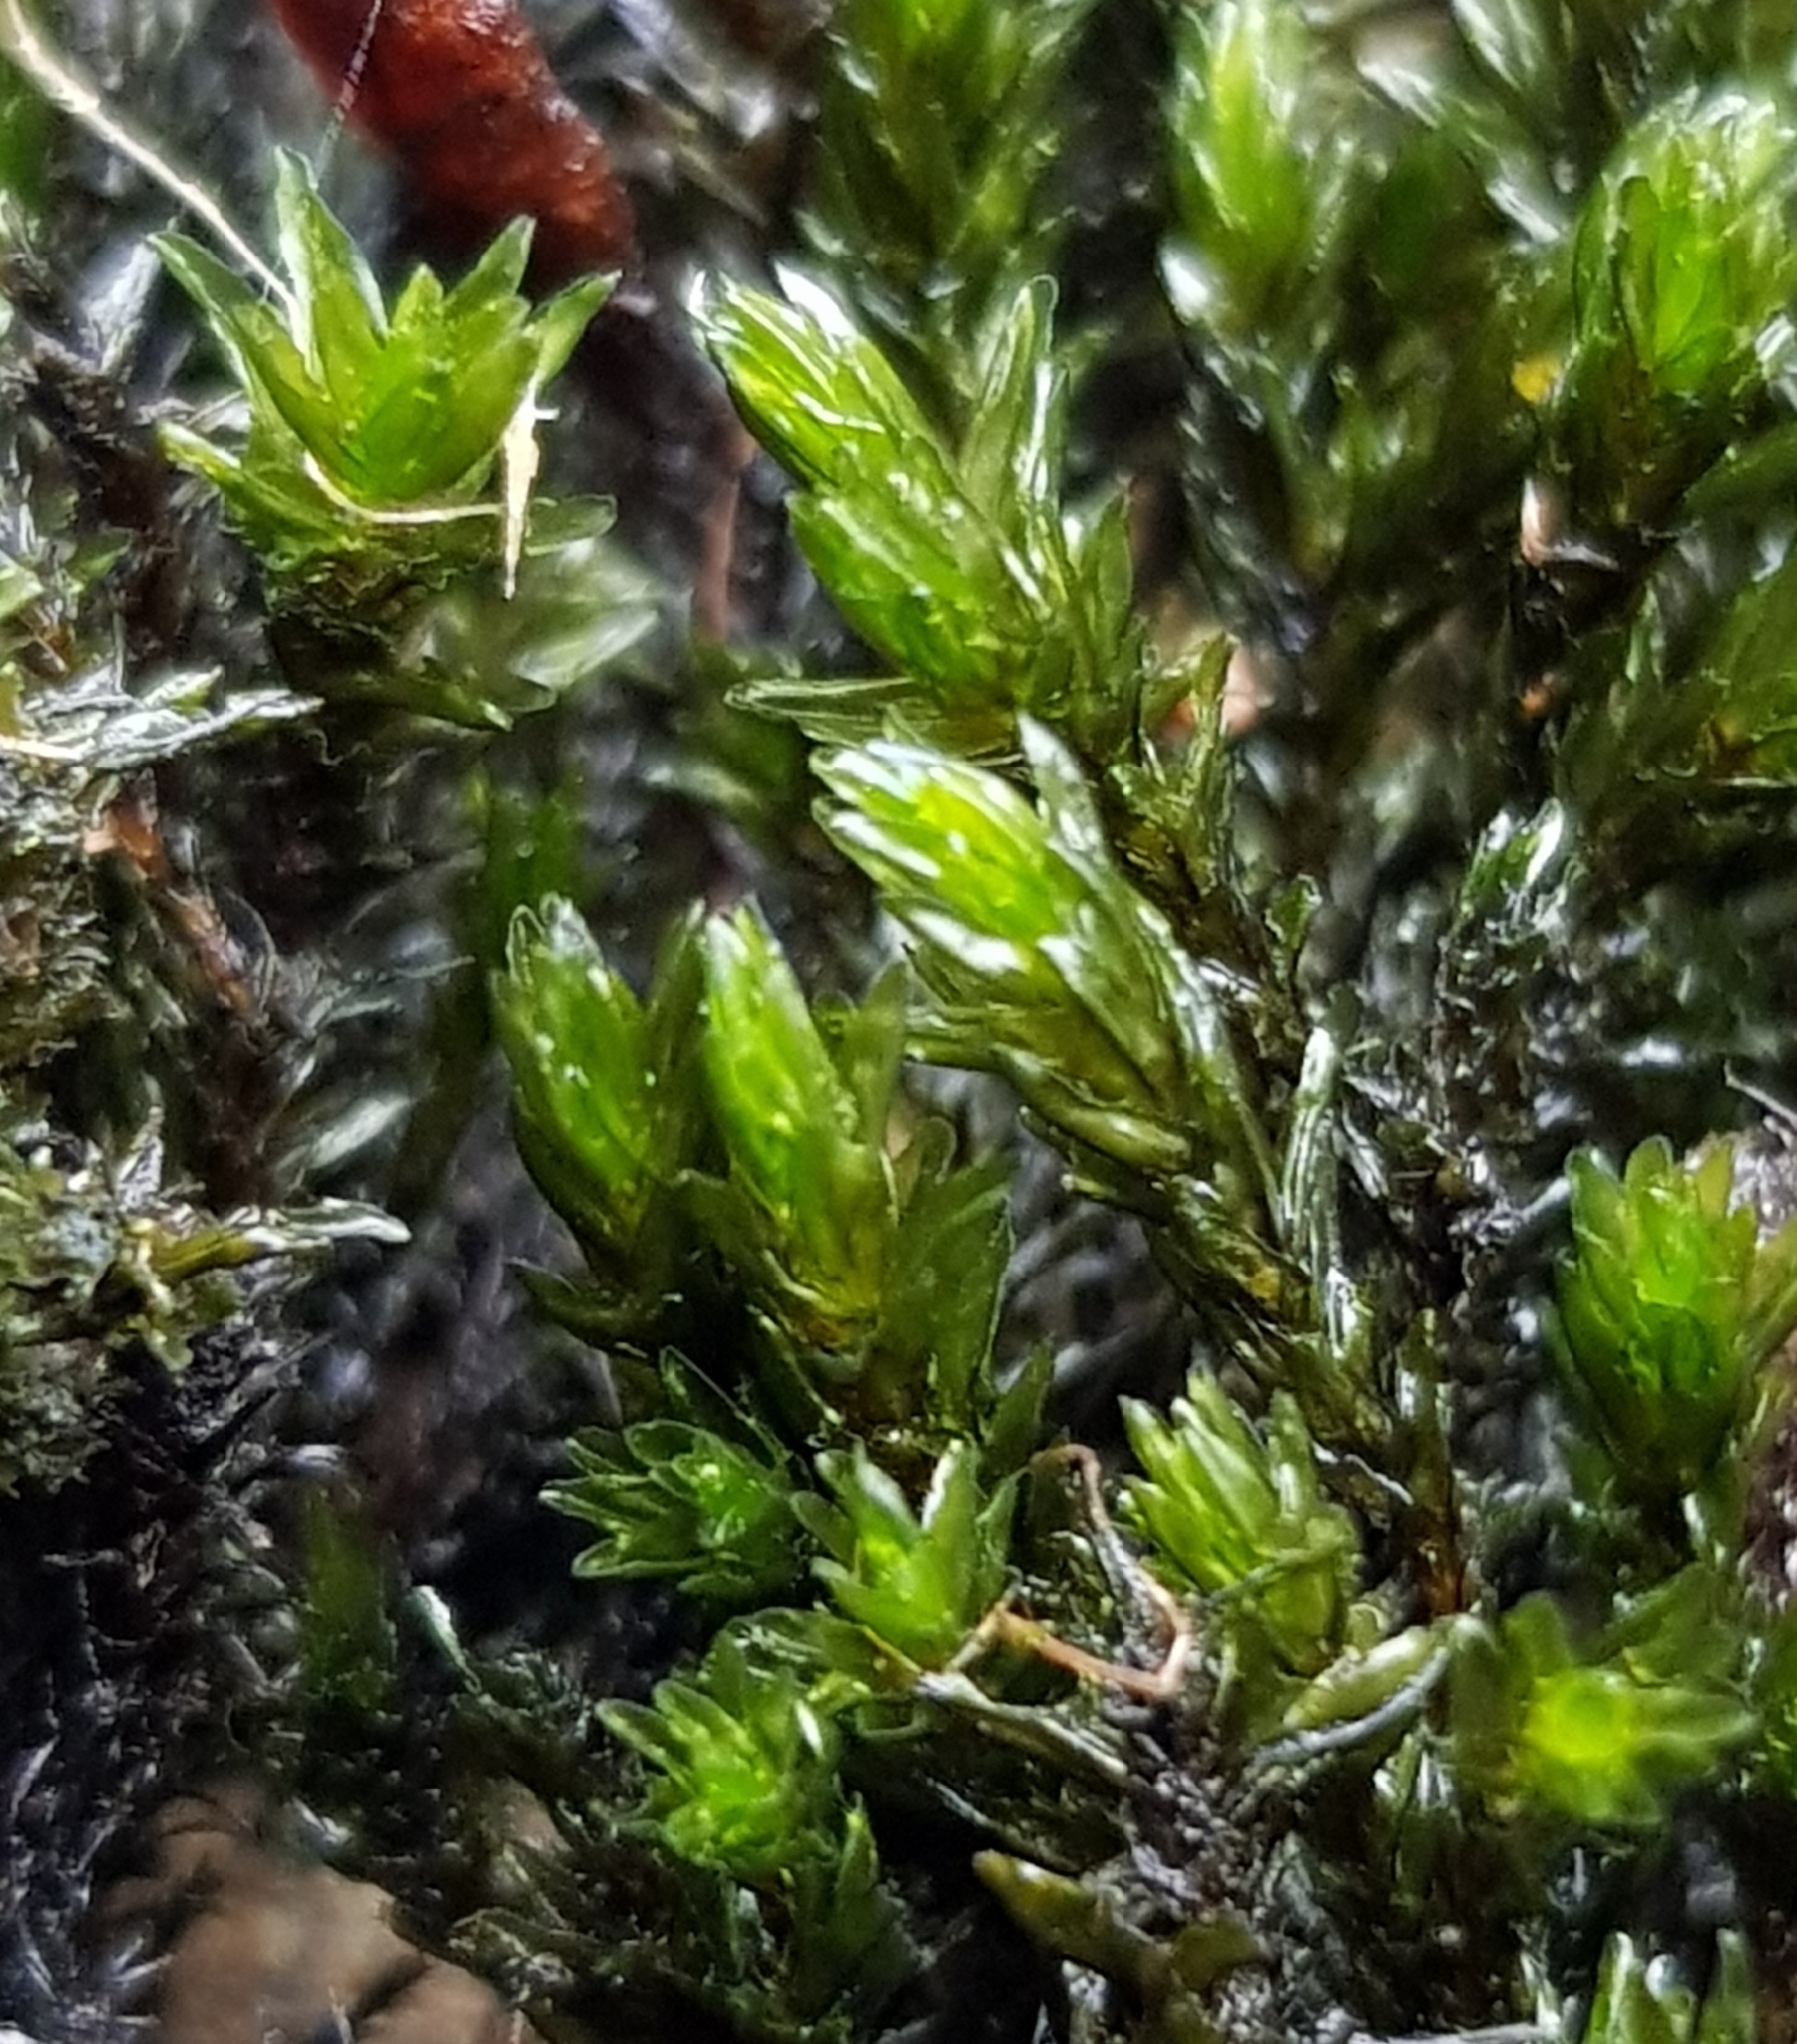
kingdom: Plantae
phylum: Bryophyta
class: Bryopsida
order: Grimmiales
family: Grimmiaceae
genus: Codriophorus
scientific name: Codriophorus acicularis
